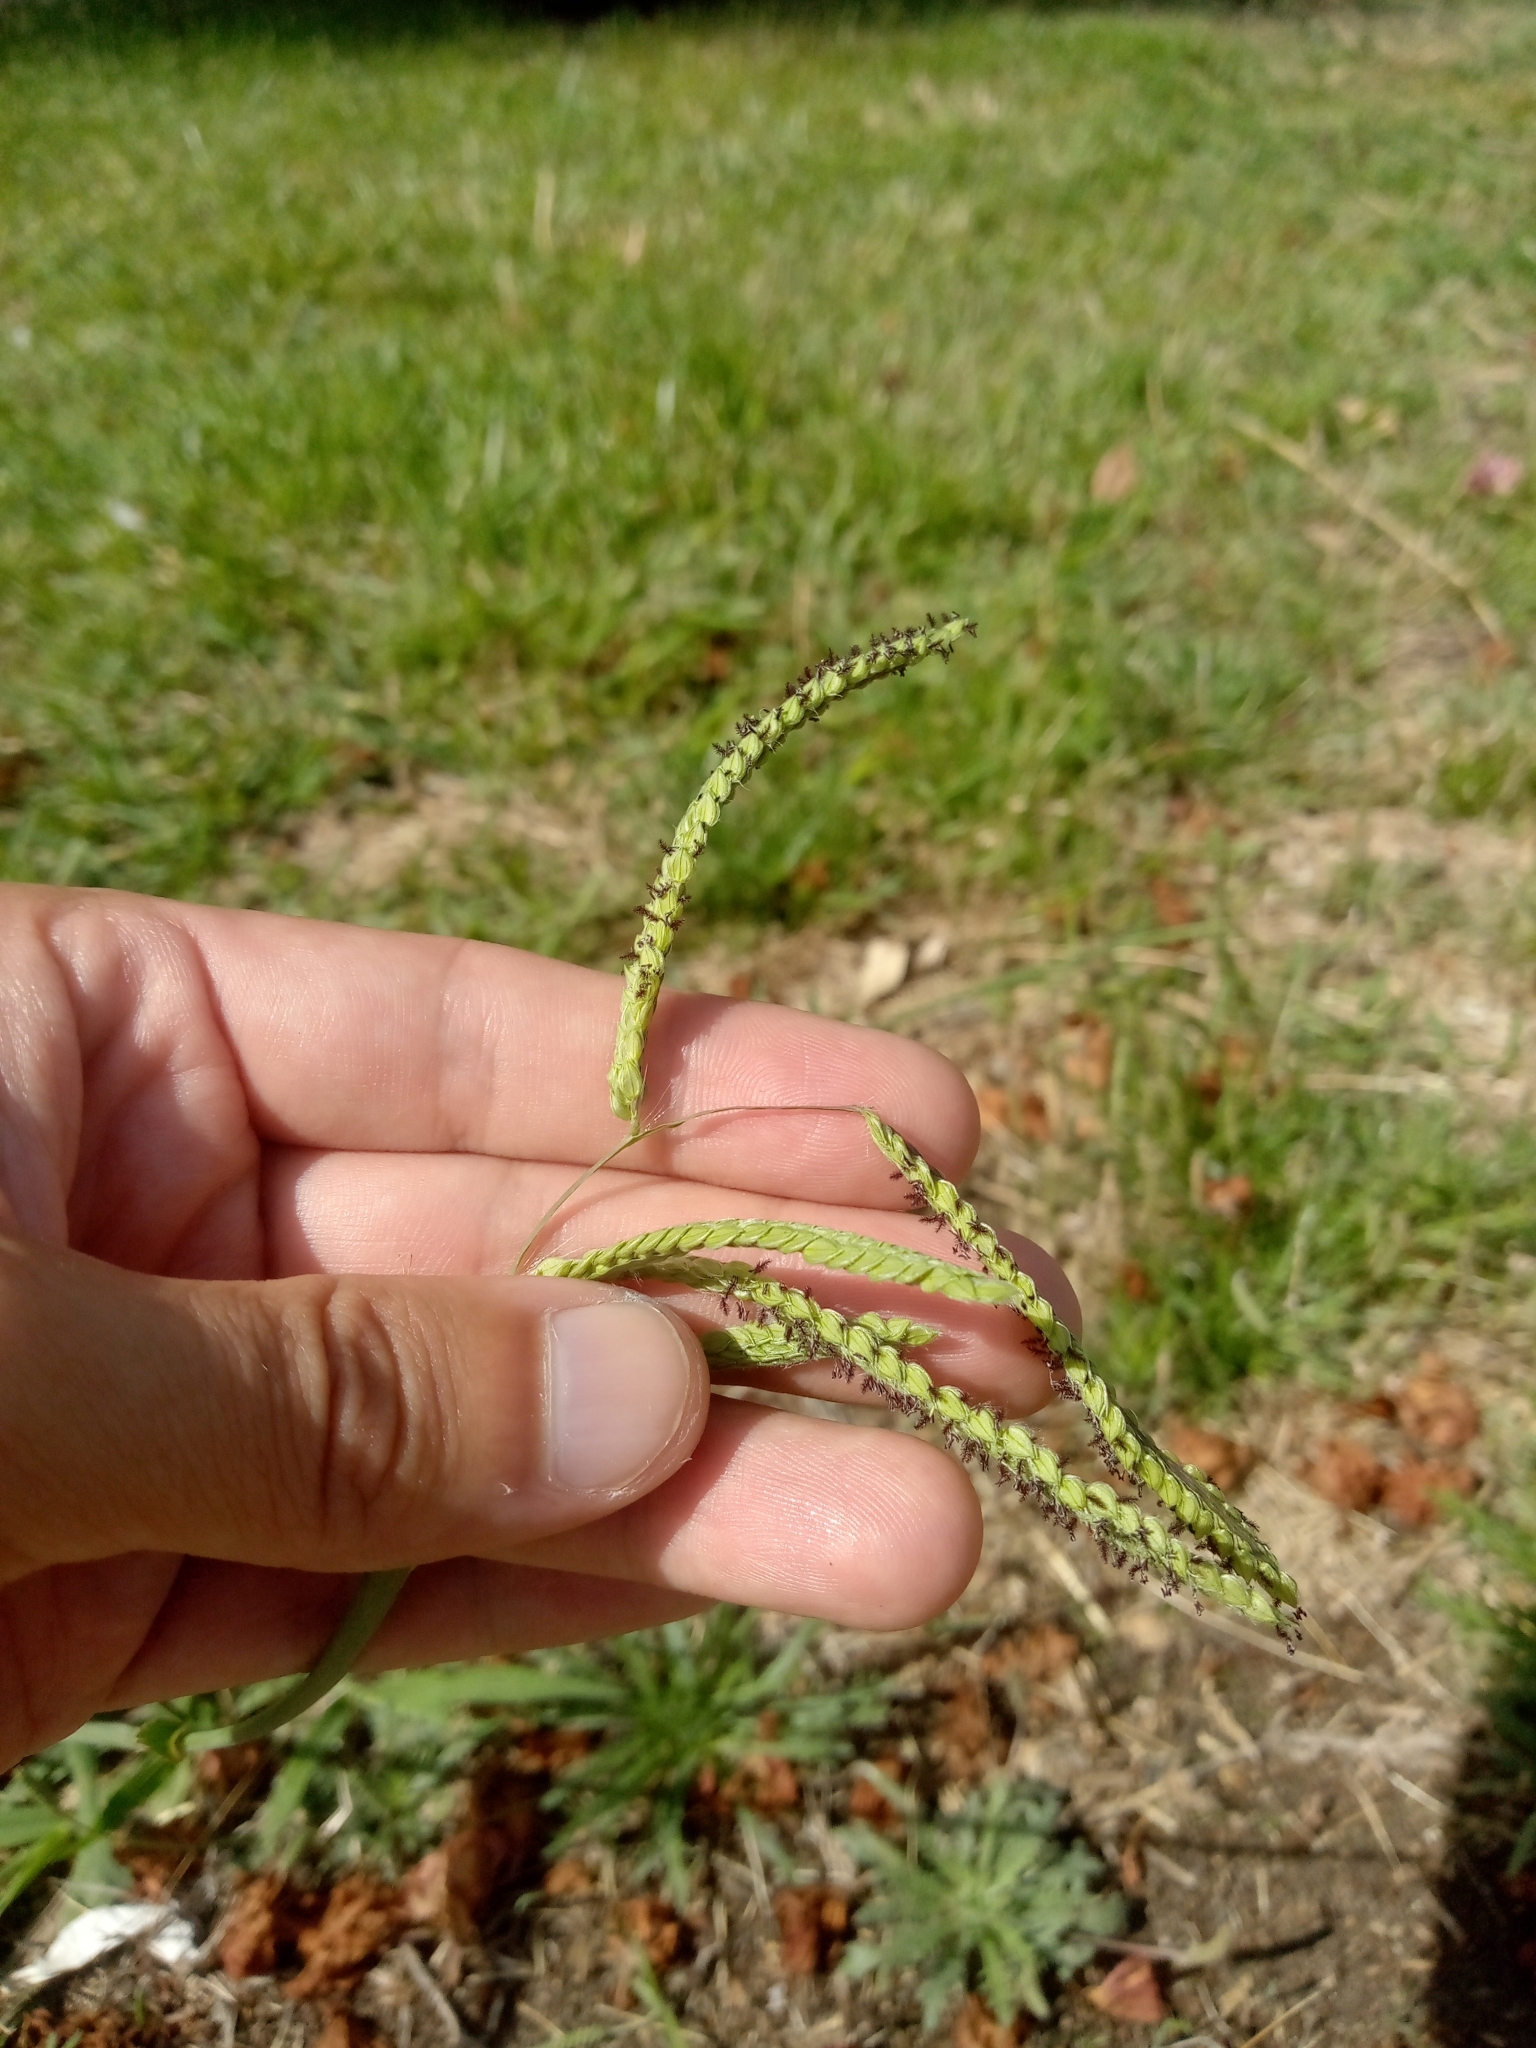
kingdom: Plantae
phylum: Tracheophyta
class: Liliopsida
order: Poales
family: Poaceae
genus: Paspalum
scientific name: Paspalum dilatatum
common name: Dallisgrass
